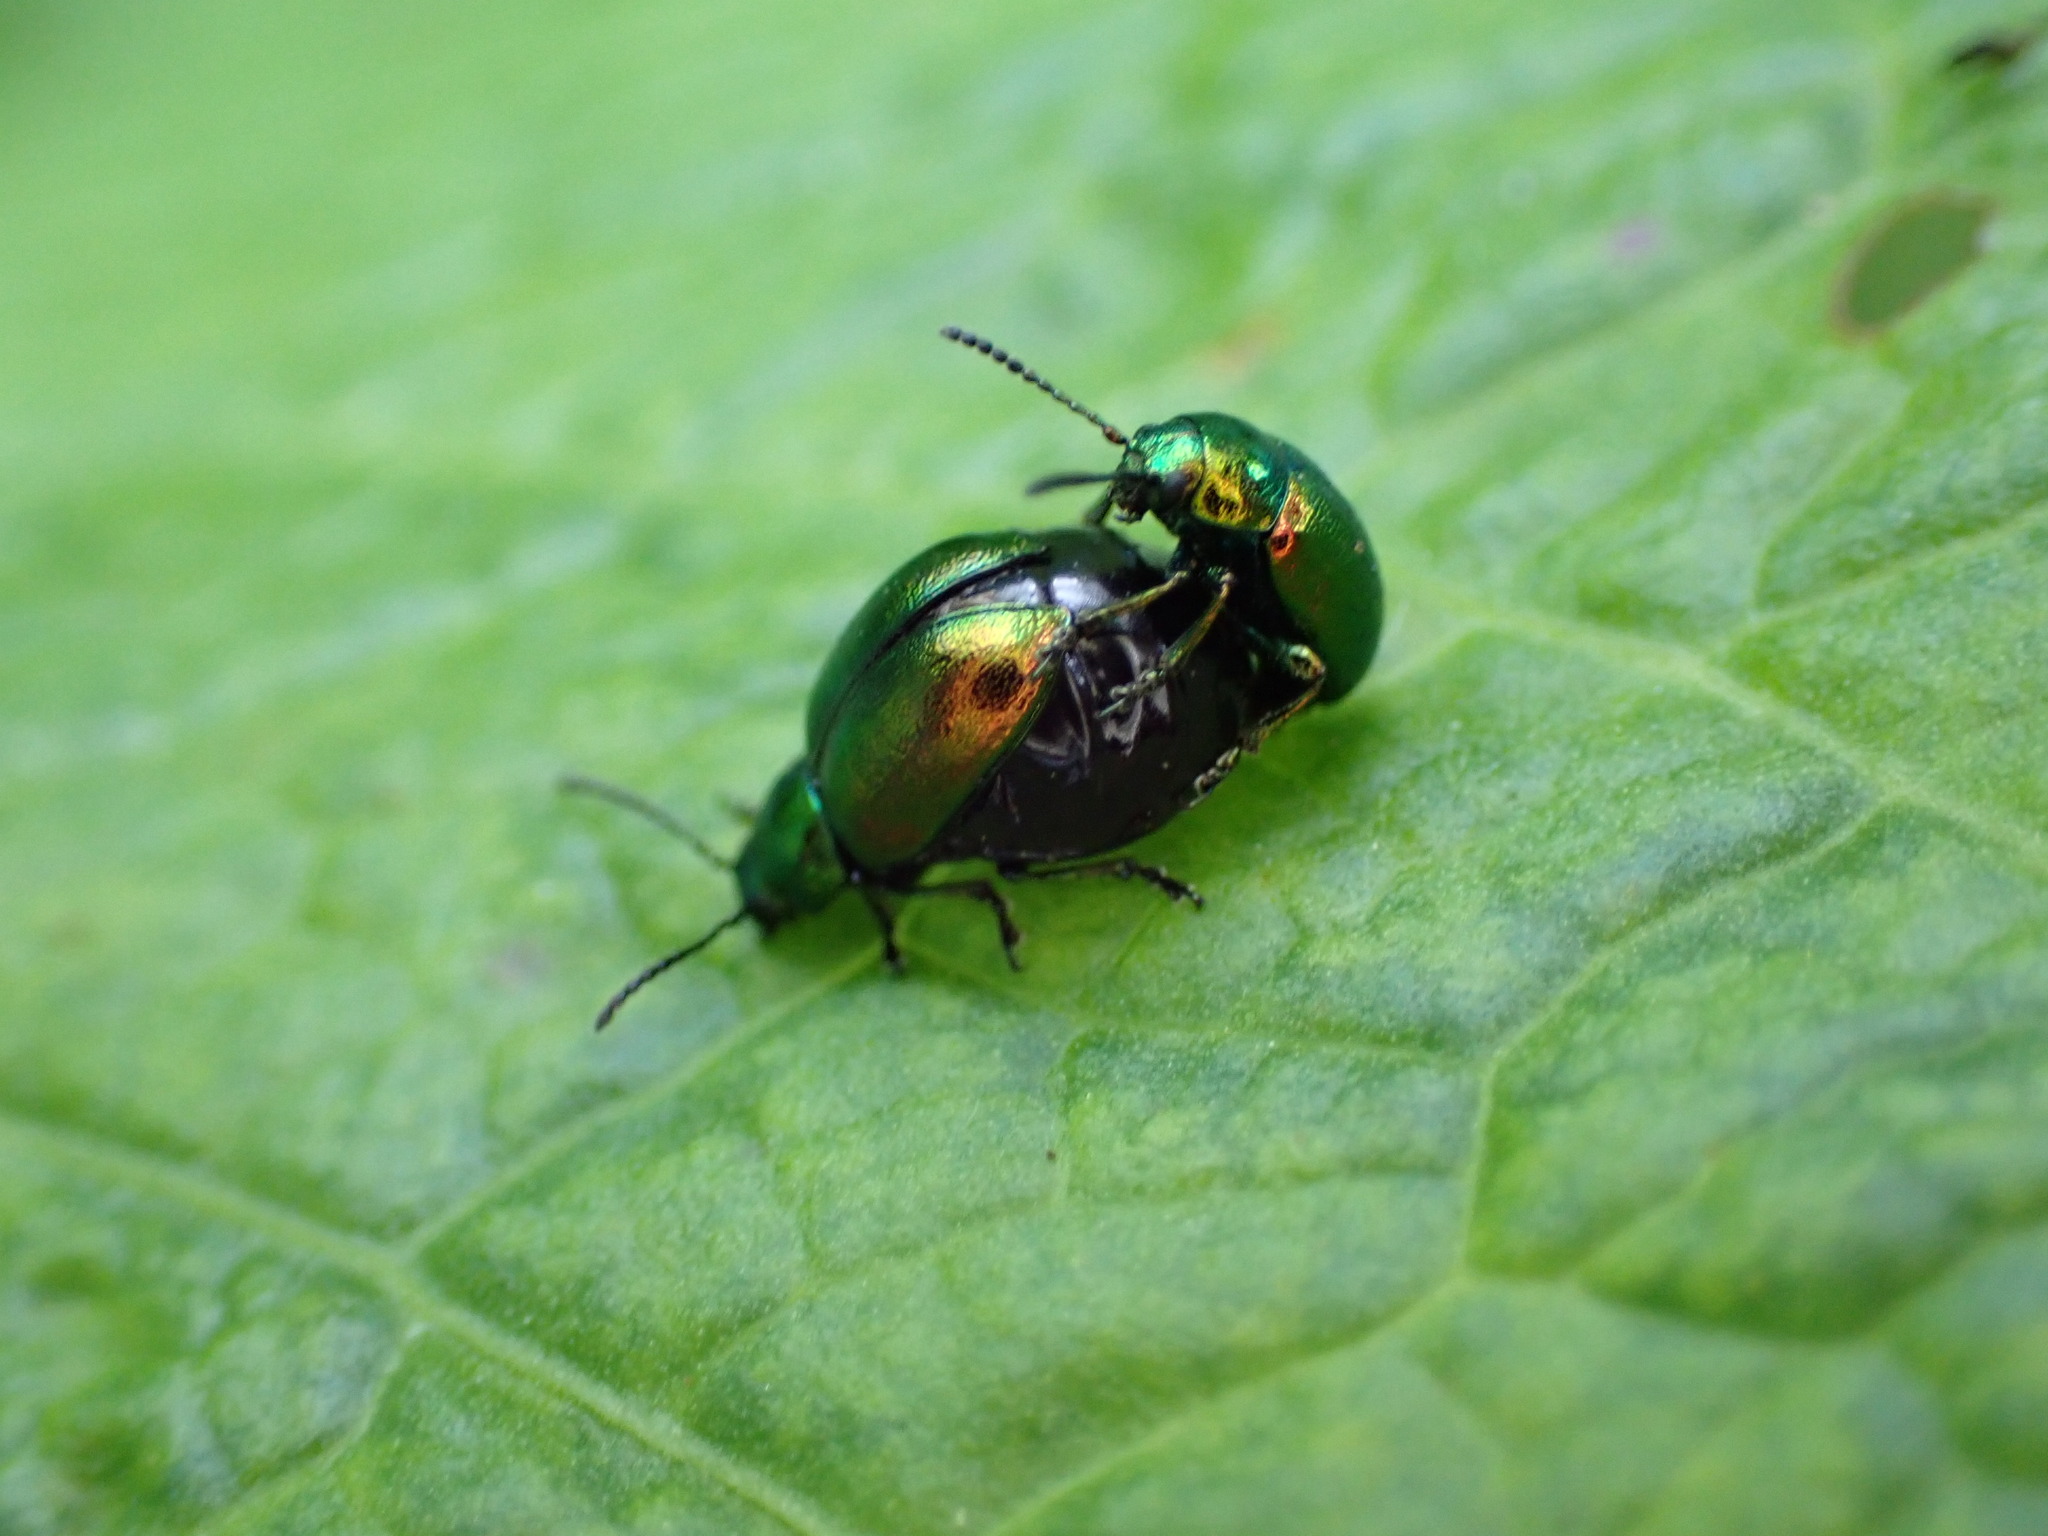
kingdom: Animalia
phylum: Arthropoda
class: Insecta
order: Coleoptera
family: Chrysomelidae
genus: Gastrophysa
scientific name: Gastrophysa viridula
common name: Green dock beetle
